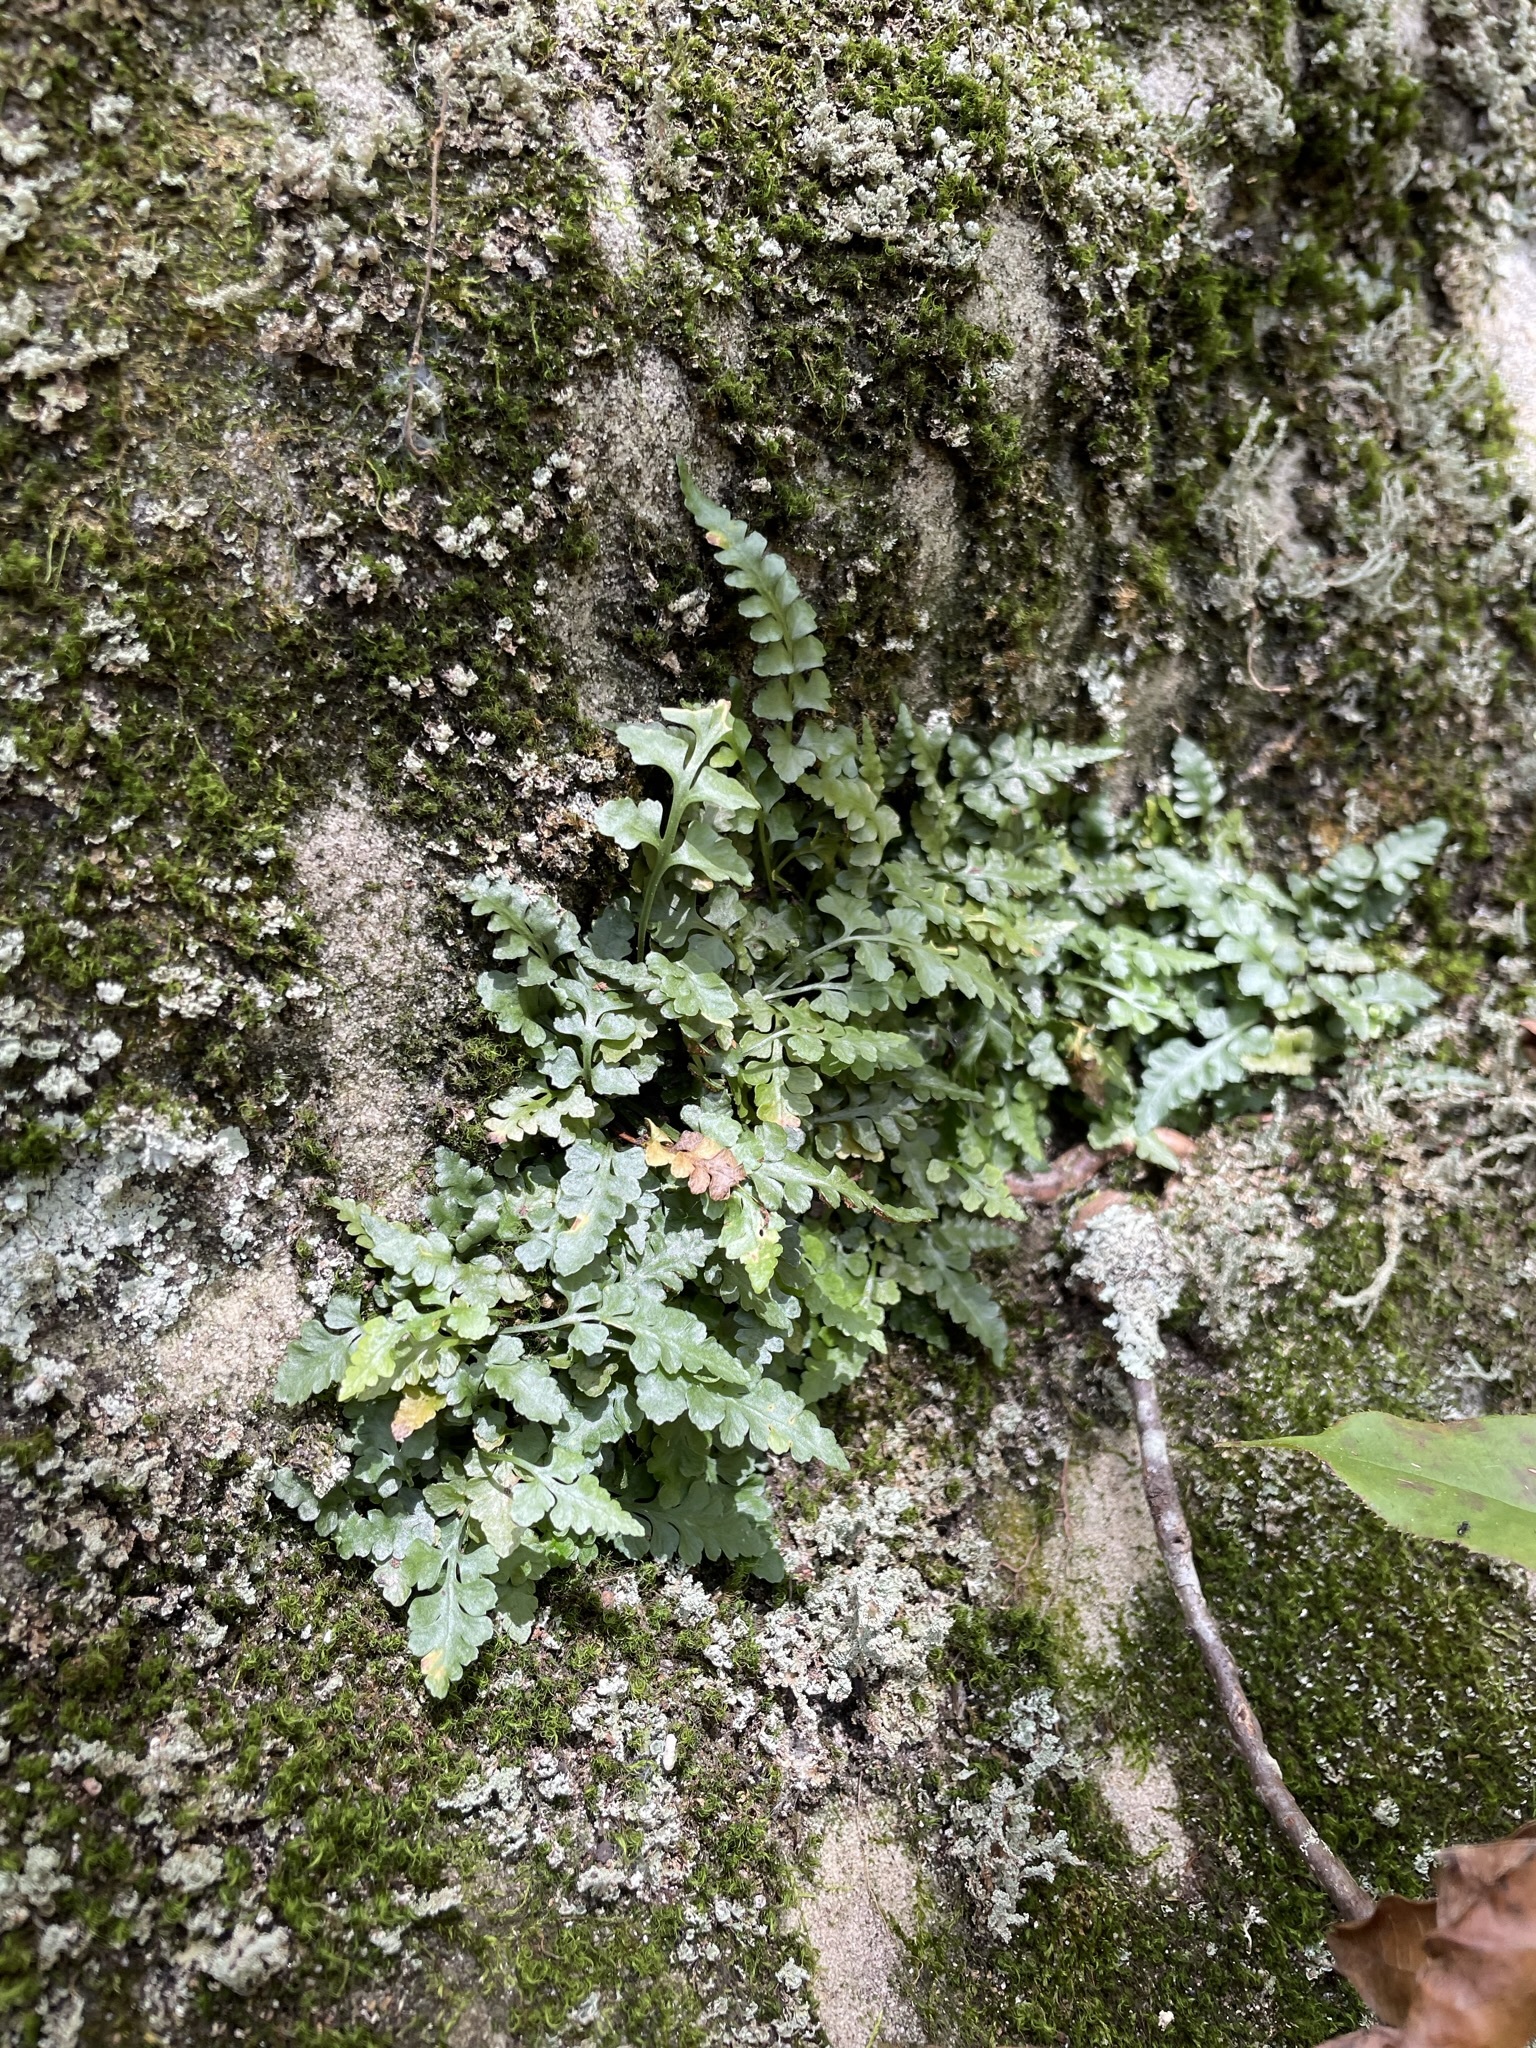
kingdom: Plantae
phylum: Tracheophyta
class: Polypodiopsida
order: Polypodiales
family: Aspleniaceae
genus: Asplenium
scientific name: Asplenium bradleyi
